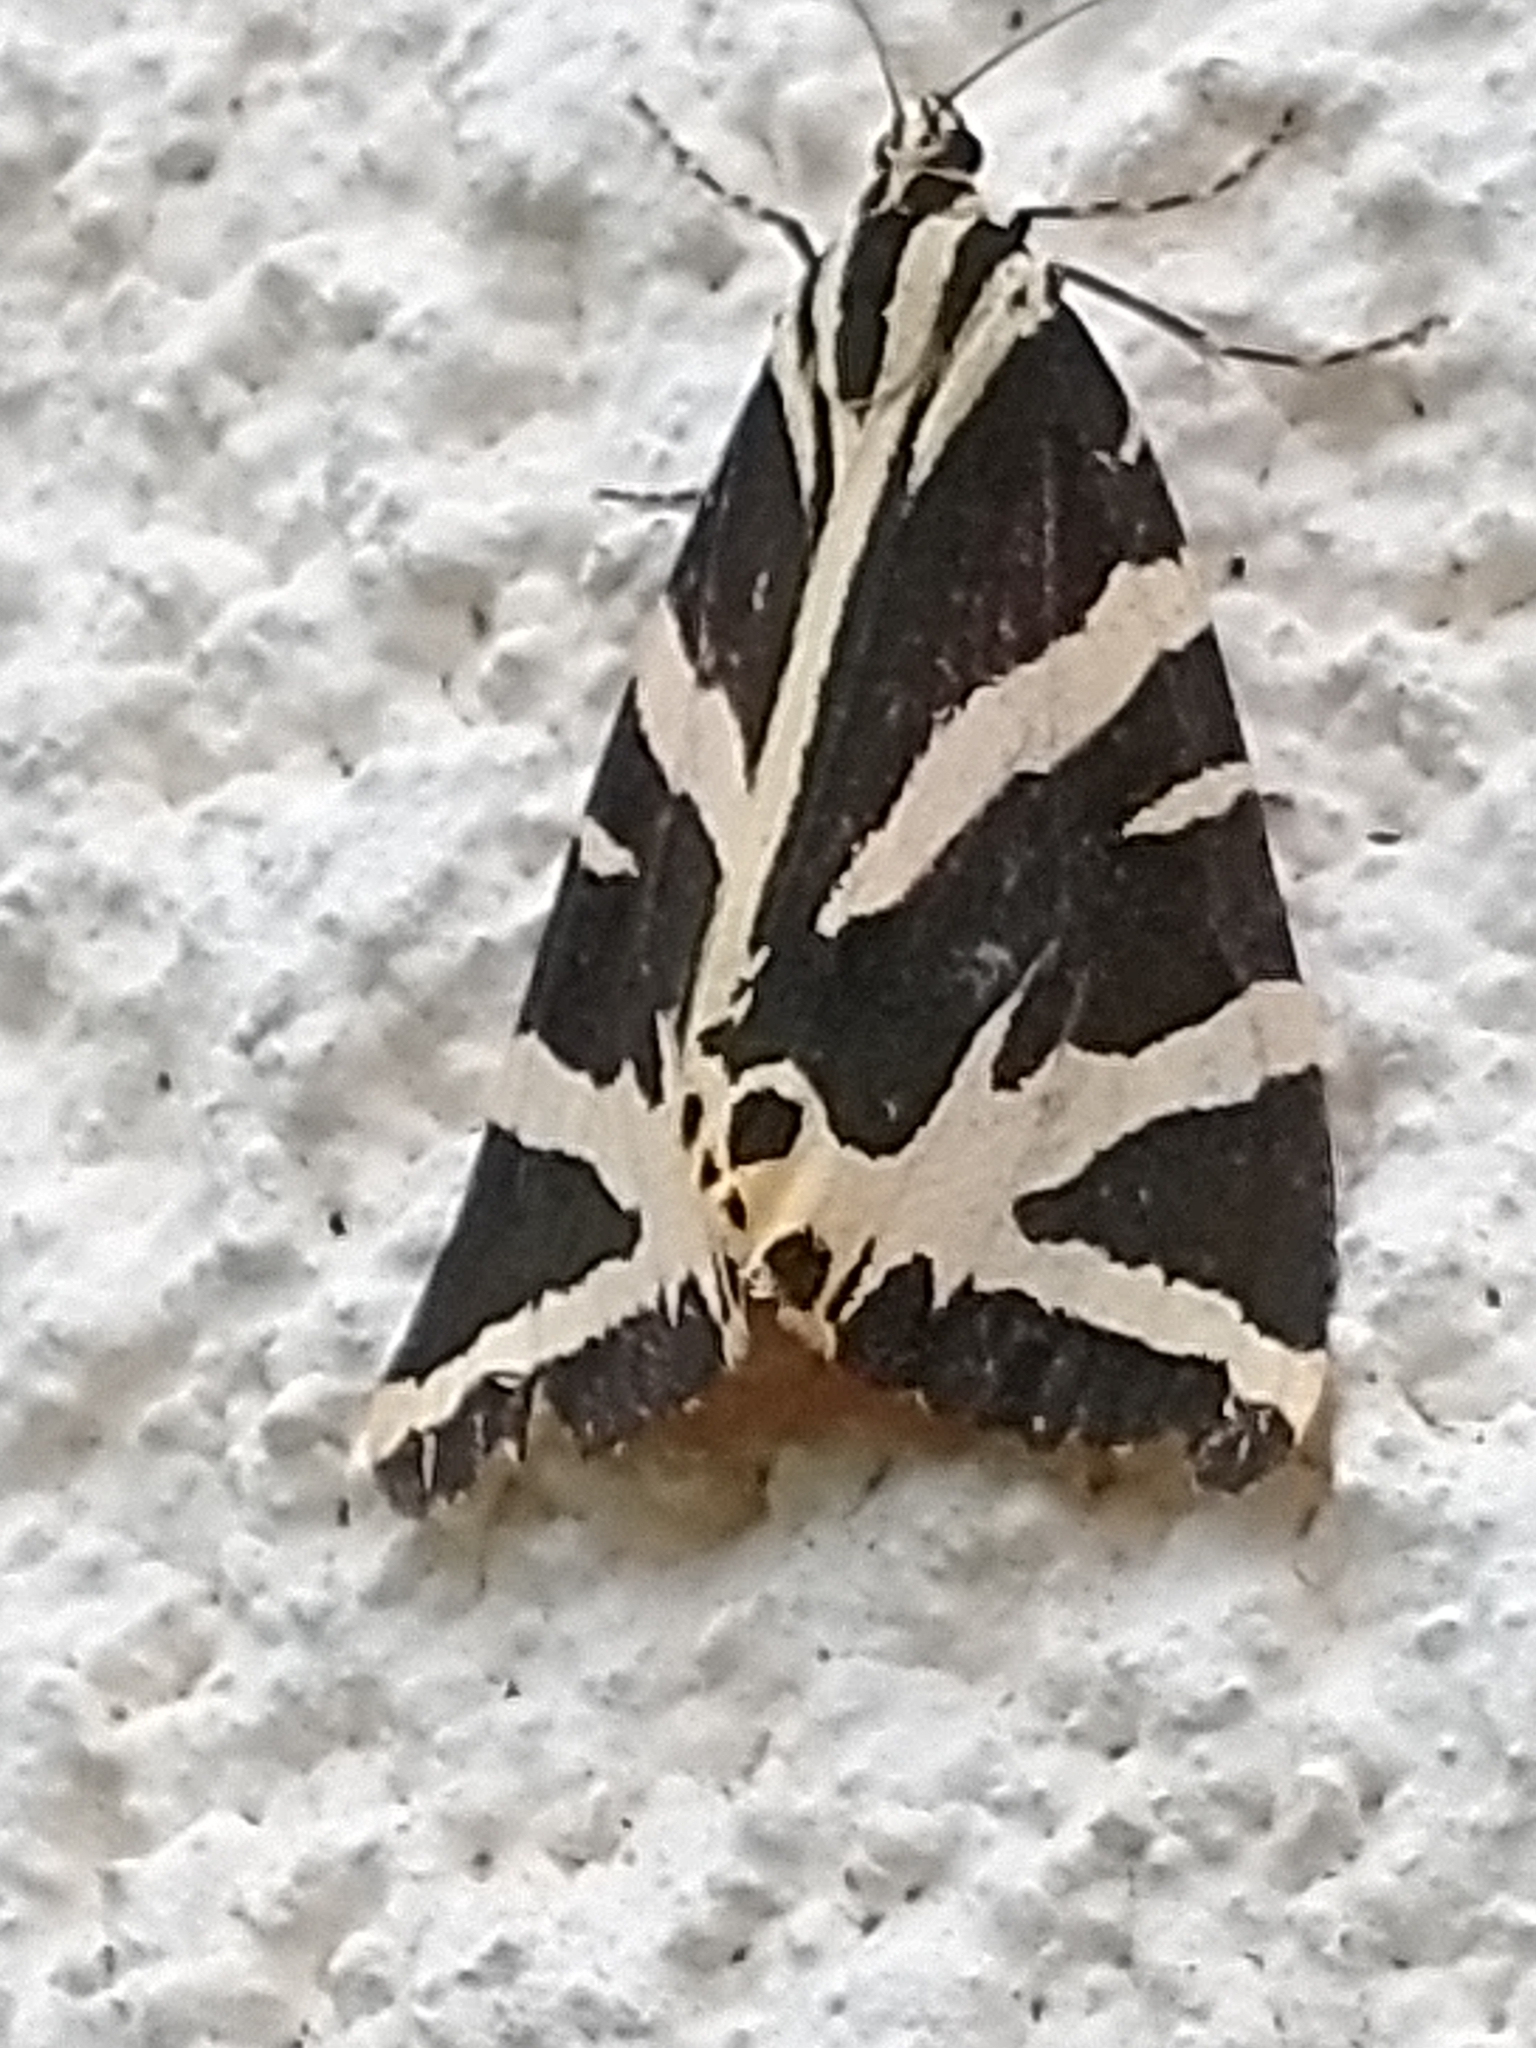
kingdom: Animalia
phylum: Arthropoda
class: Insecta
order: Lepidoptera
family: Erebidae
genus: Euplagia
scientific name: Euplagia quadripunctaria
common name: Jersey tiger
